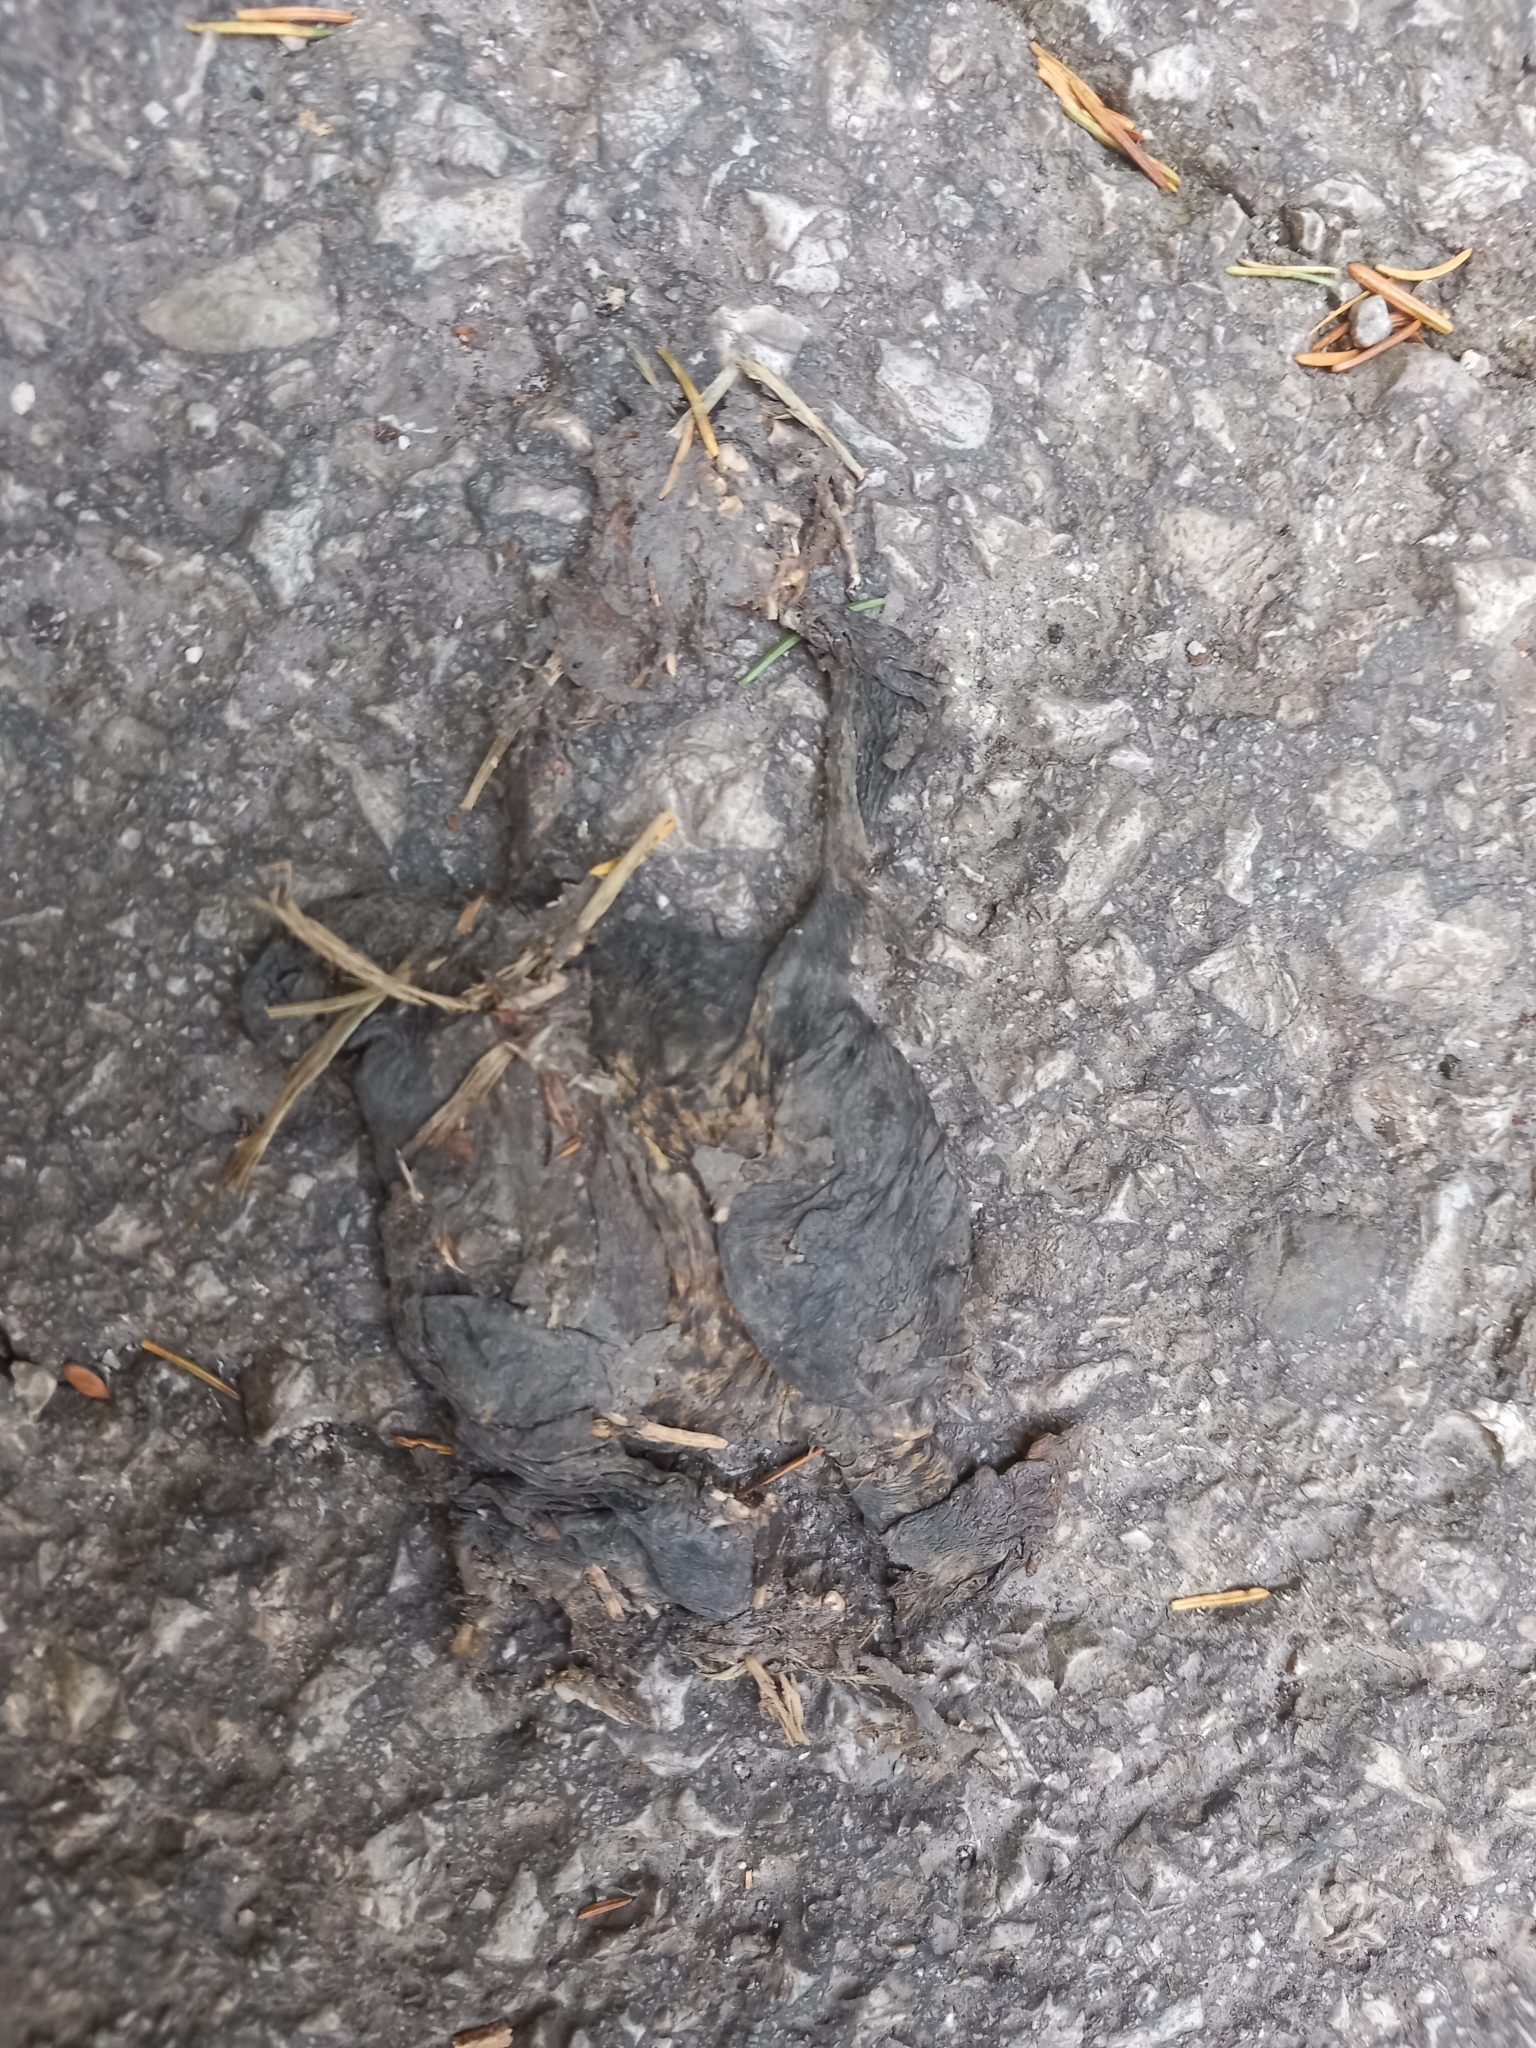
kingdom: Animalia
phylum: Chordata
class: Amphibia
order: Anura
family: Bufonidae
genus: Bufo
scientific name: Bufo bufo
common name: Common toad
